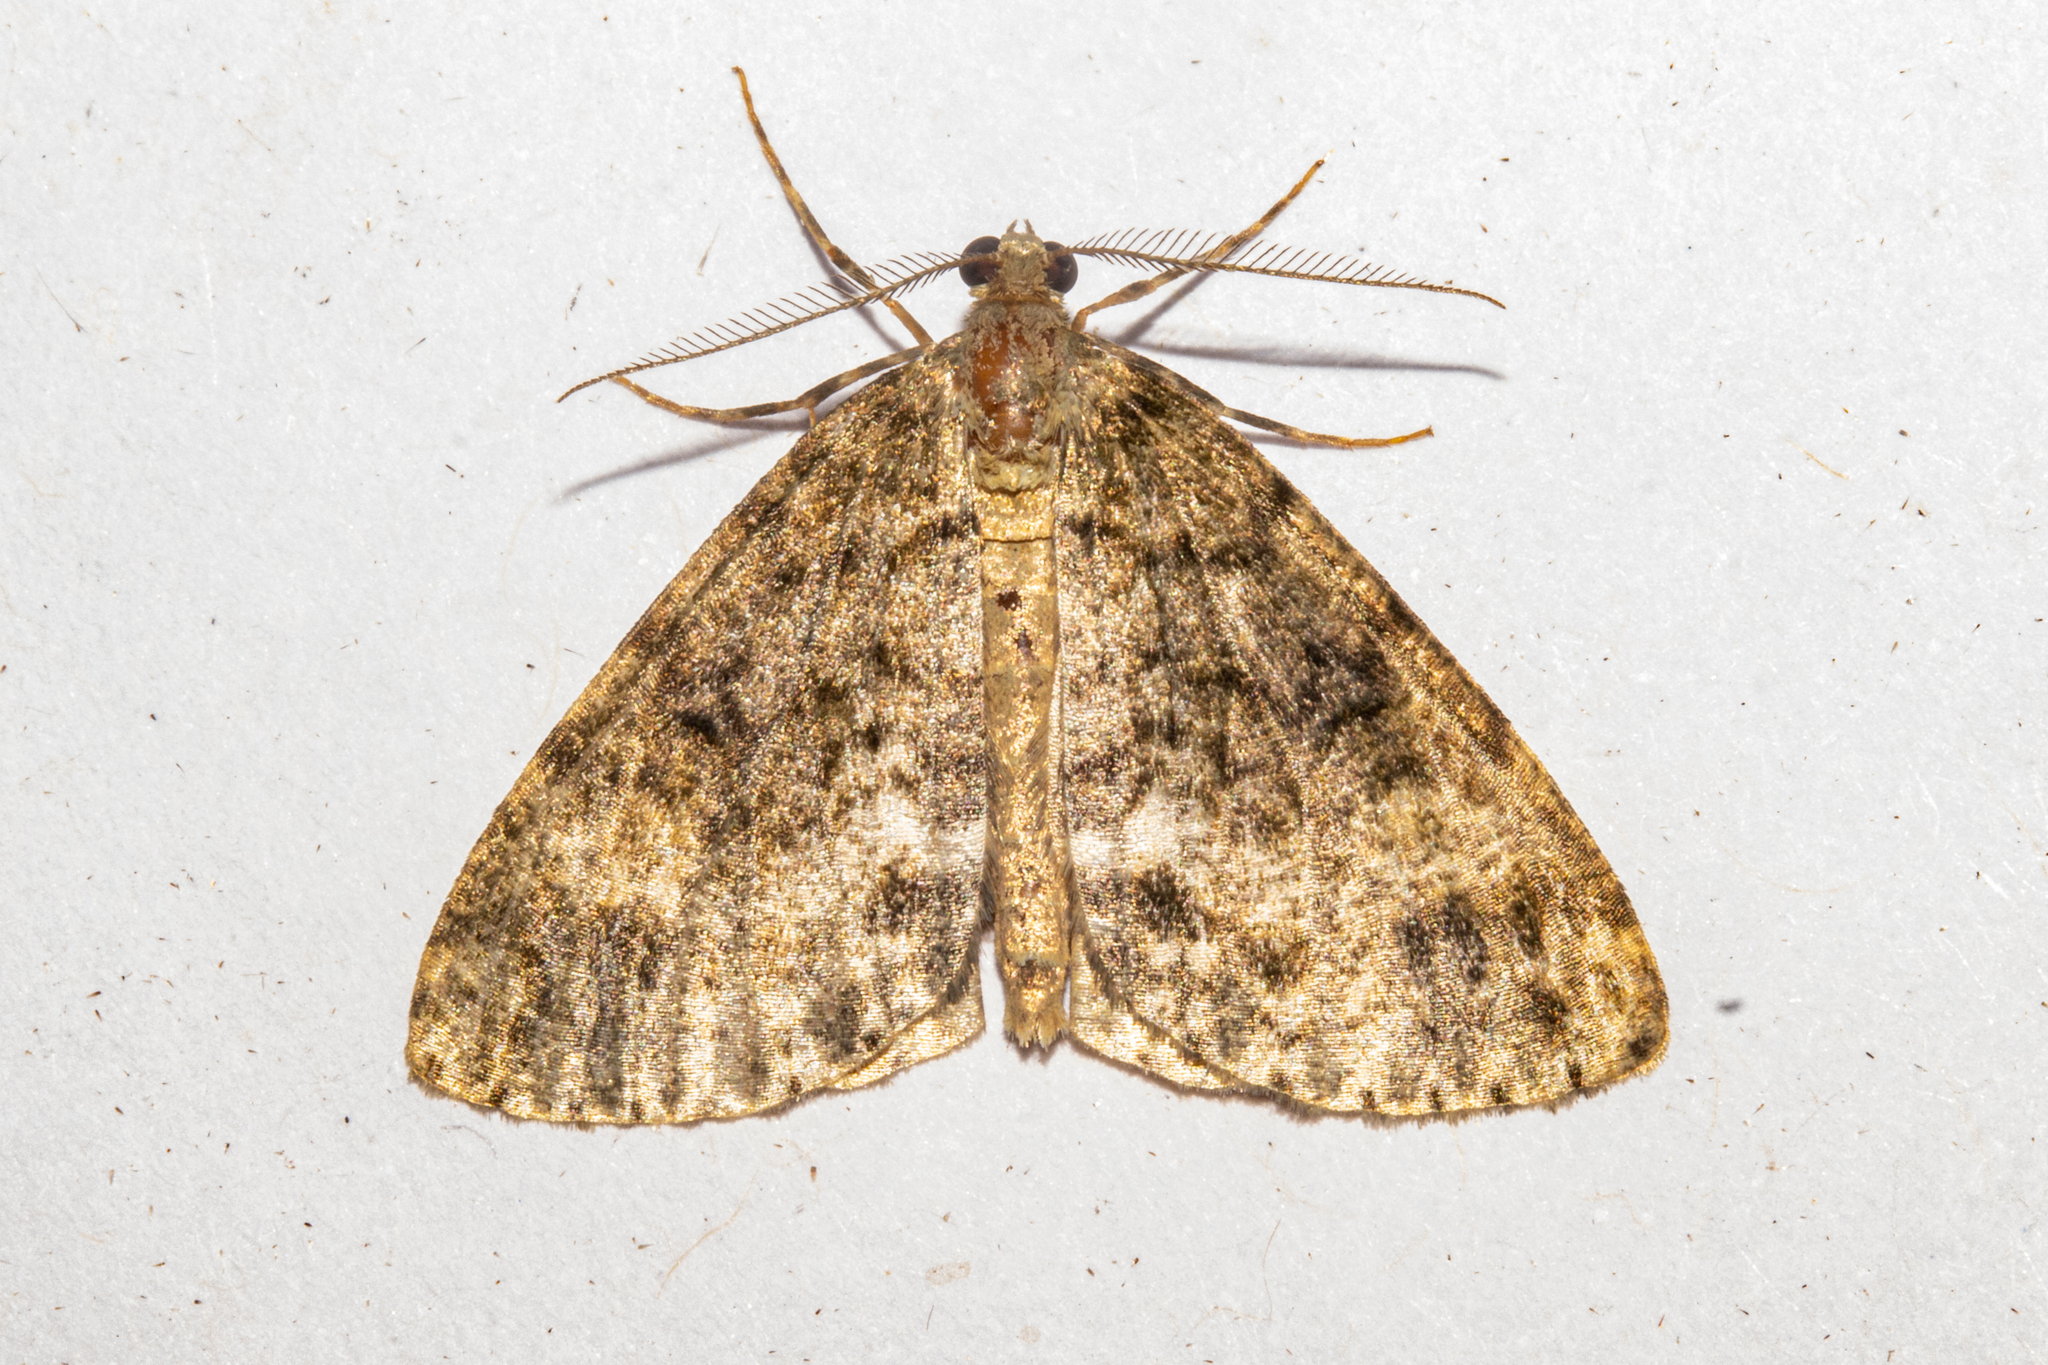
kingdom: Animalia
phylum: Arthropoda
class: Insecta
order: Lepidoptera
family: Geometridae
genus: Pseudocoremia
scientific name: Pseudocoremia indistincta
